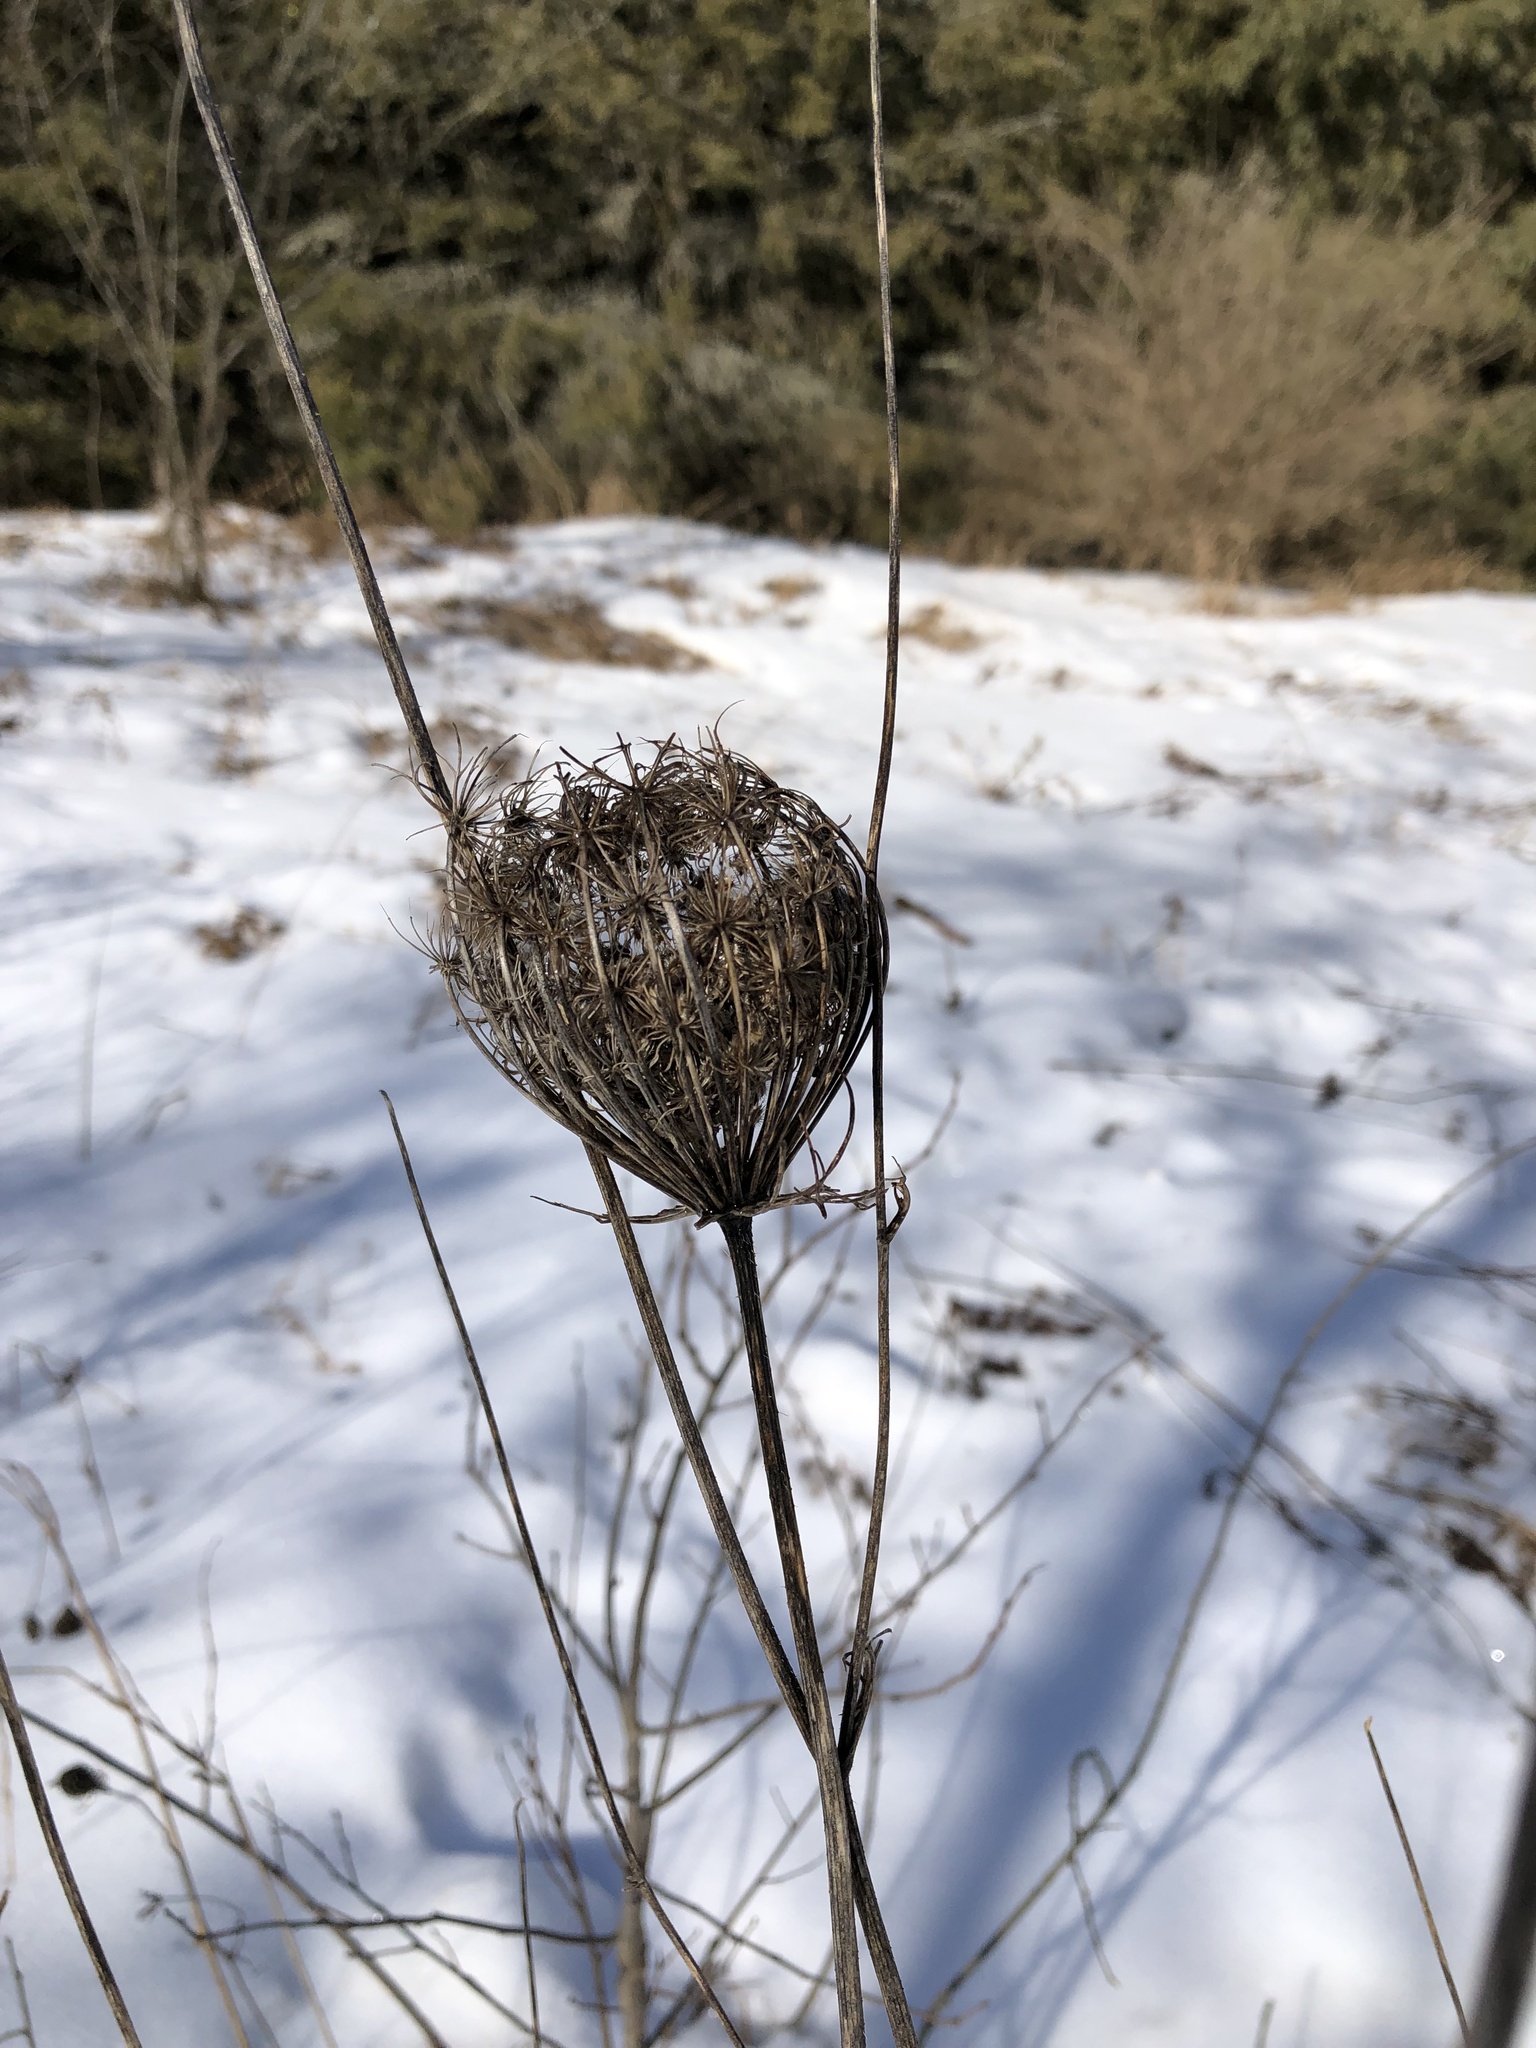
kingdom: Plantae
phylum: Tracheophyta
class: Magnoliopsida
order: Apiales
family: Apiaceae
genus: Daucus
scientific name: Daucus carota
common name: Wild carrot
